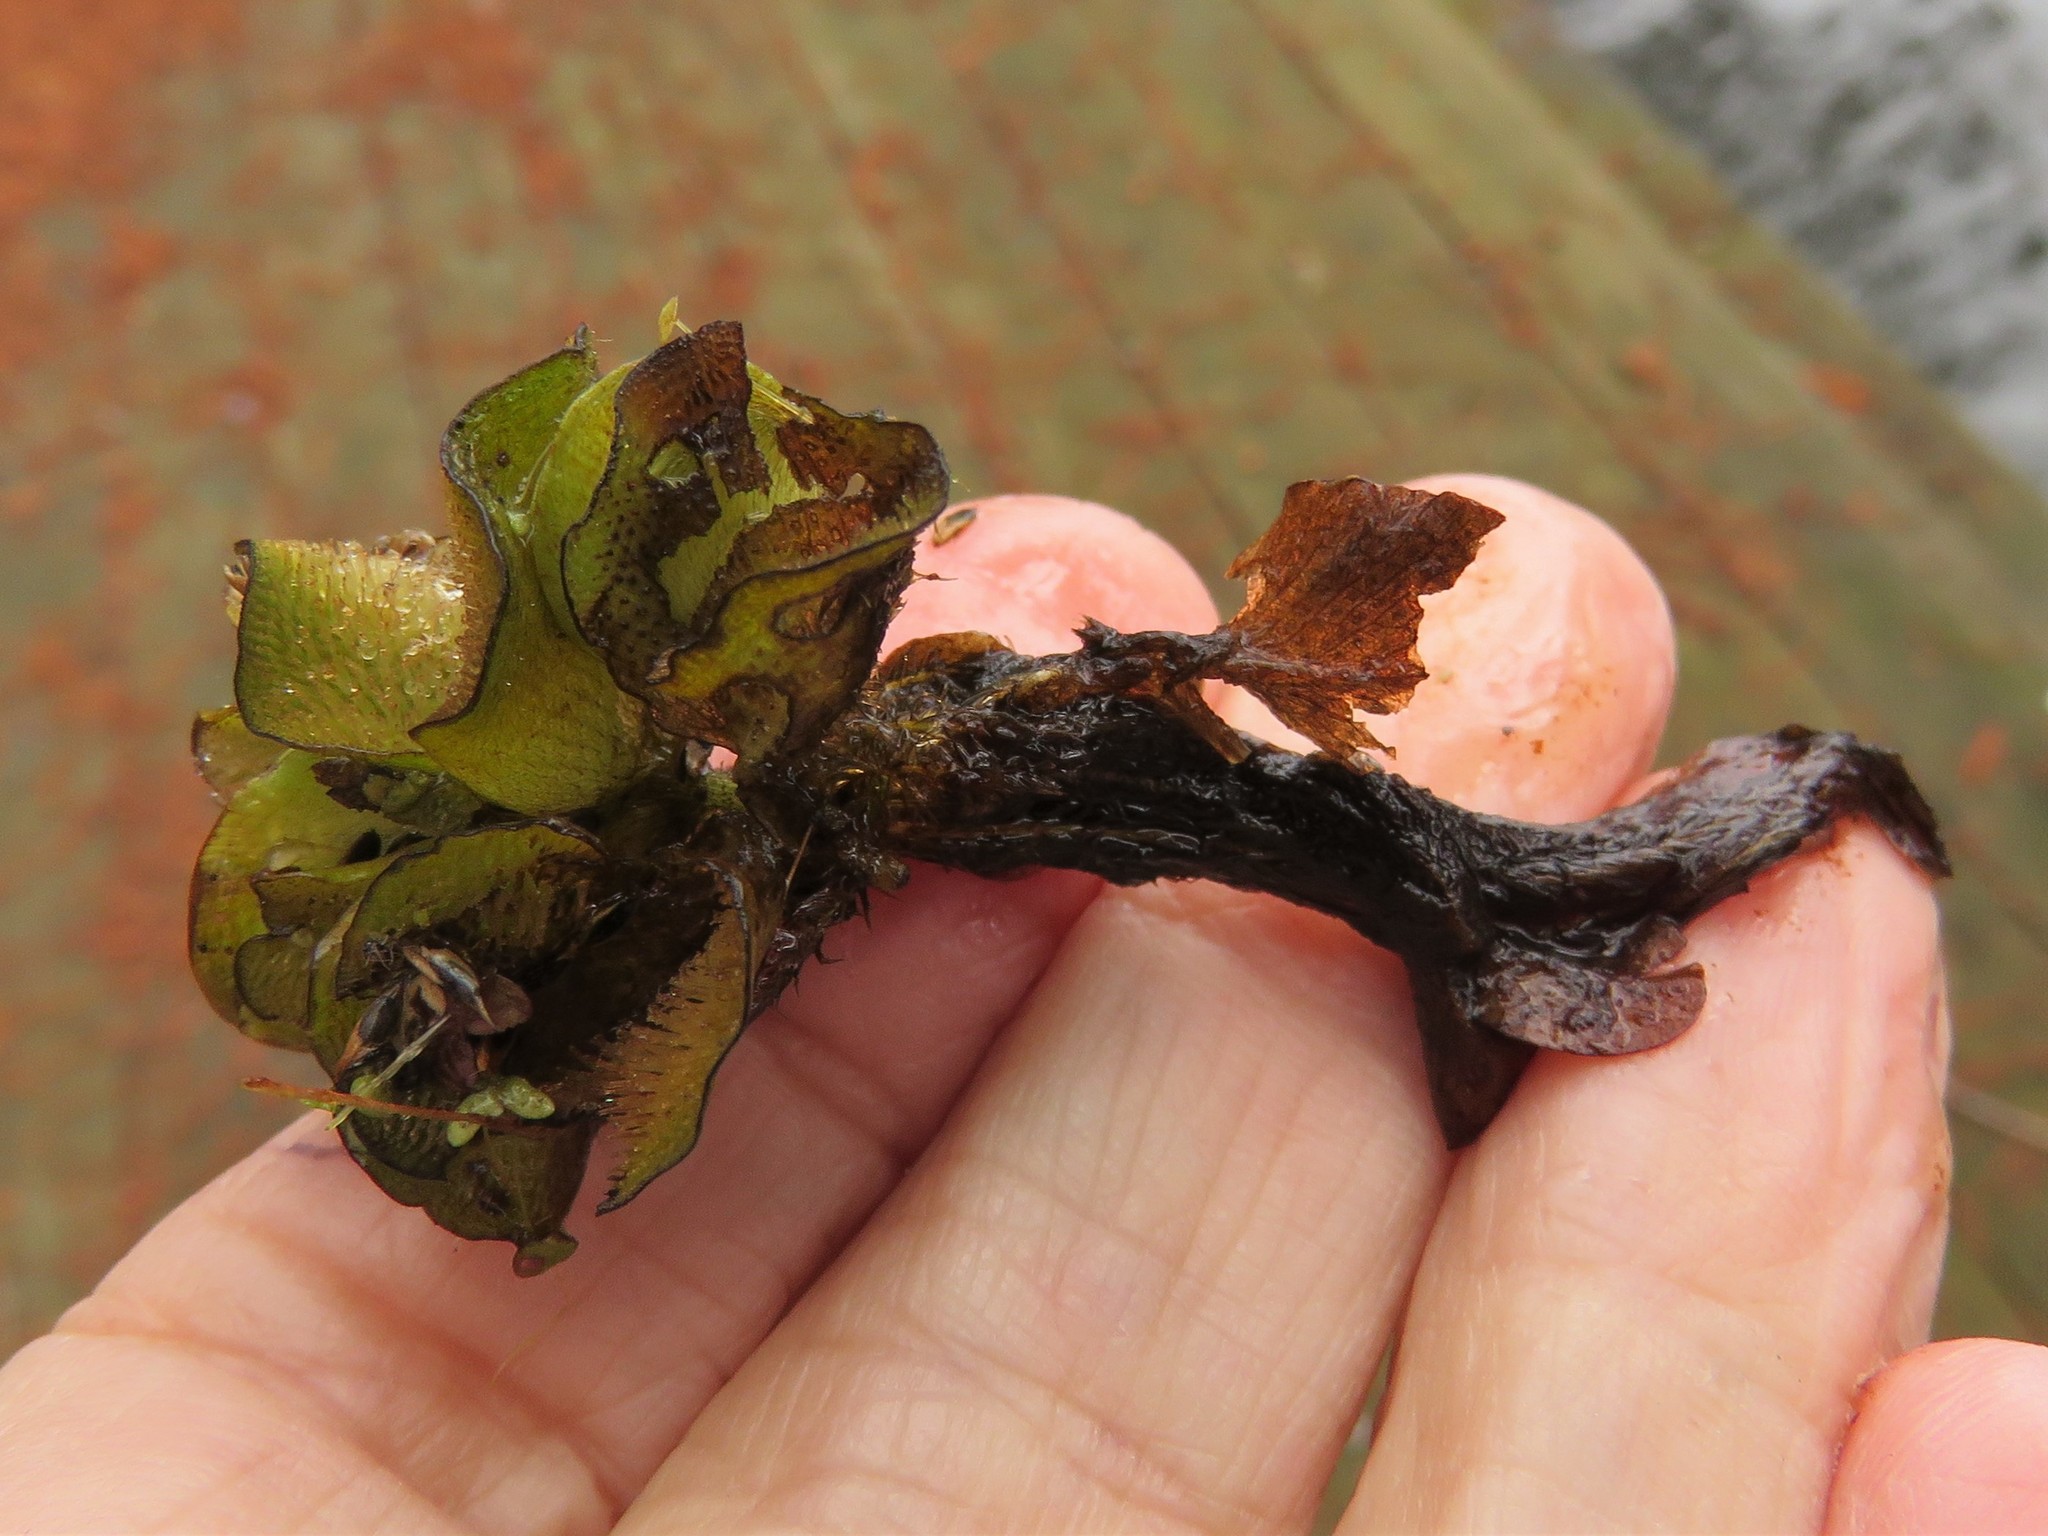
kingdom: Plantae
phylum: Tracheophyta
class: Polypodiopsida
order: Salviniales
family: Salviniaceae
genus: Salvinia
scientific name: Salvinia molesta
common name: Kariba weed
